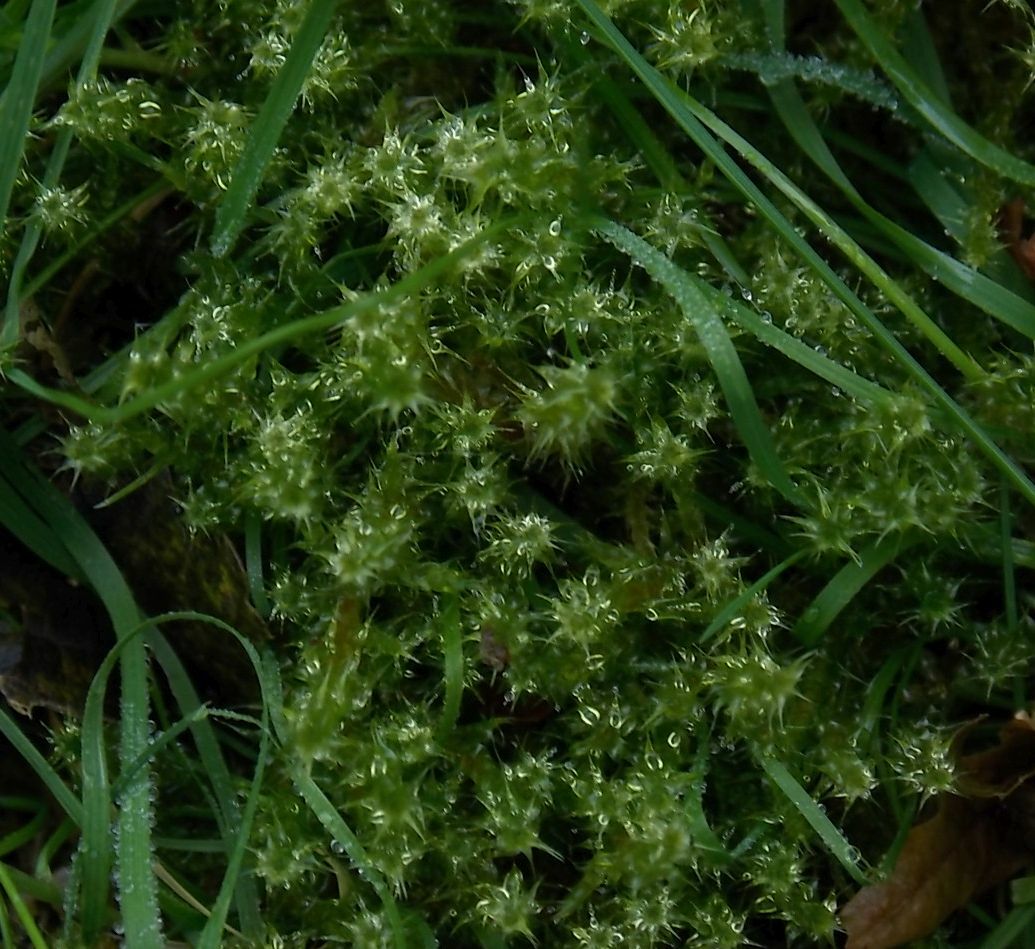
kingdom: Plantae
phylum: Bryophyta
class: Bryopsida
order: Hypnales
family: Hylocomiaceae
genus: Rhytidiadelphus
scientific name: Rhytidiadelphus squarrosus
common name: Springy turf-moss
